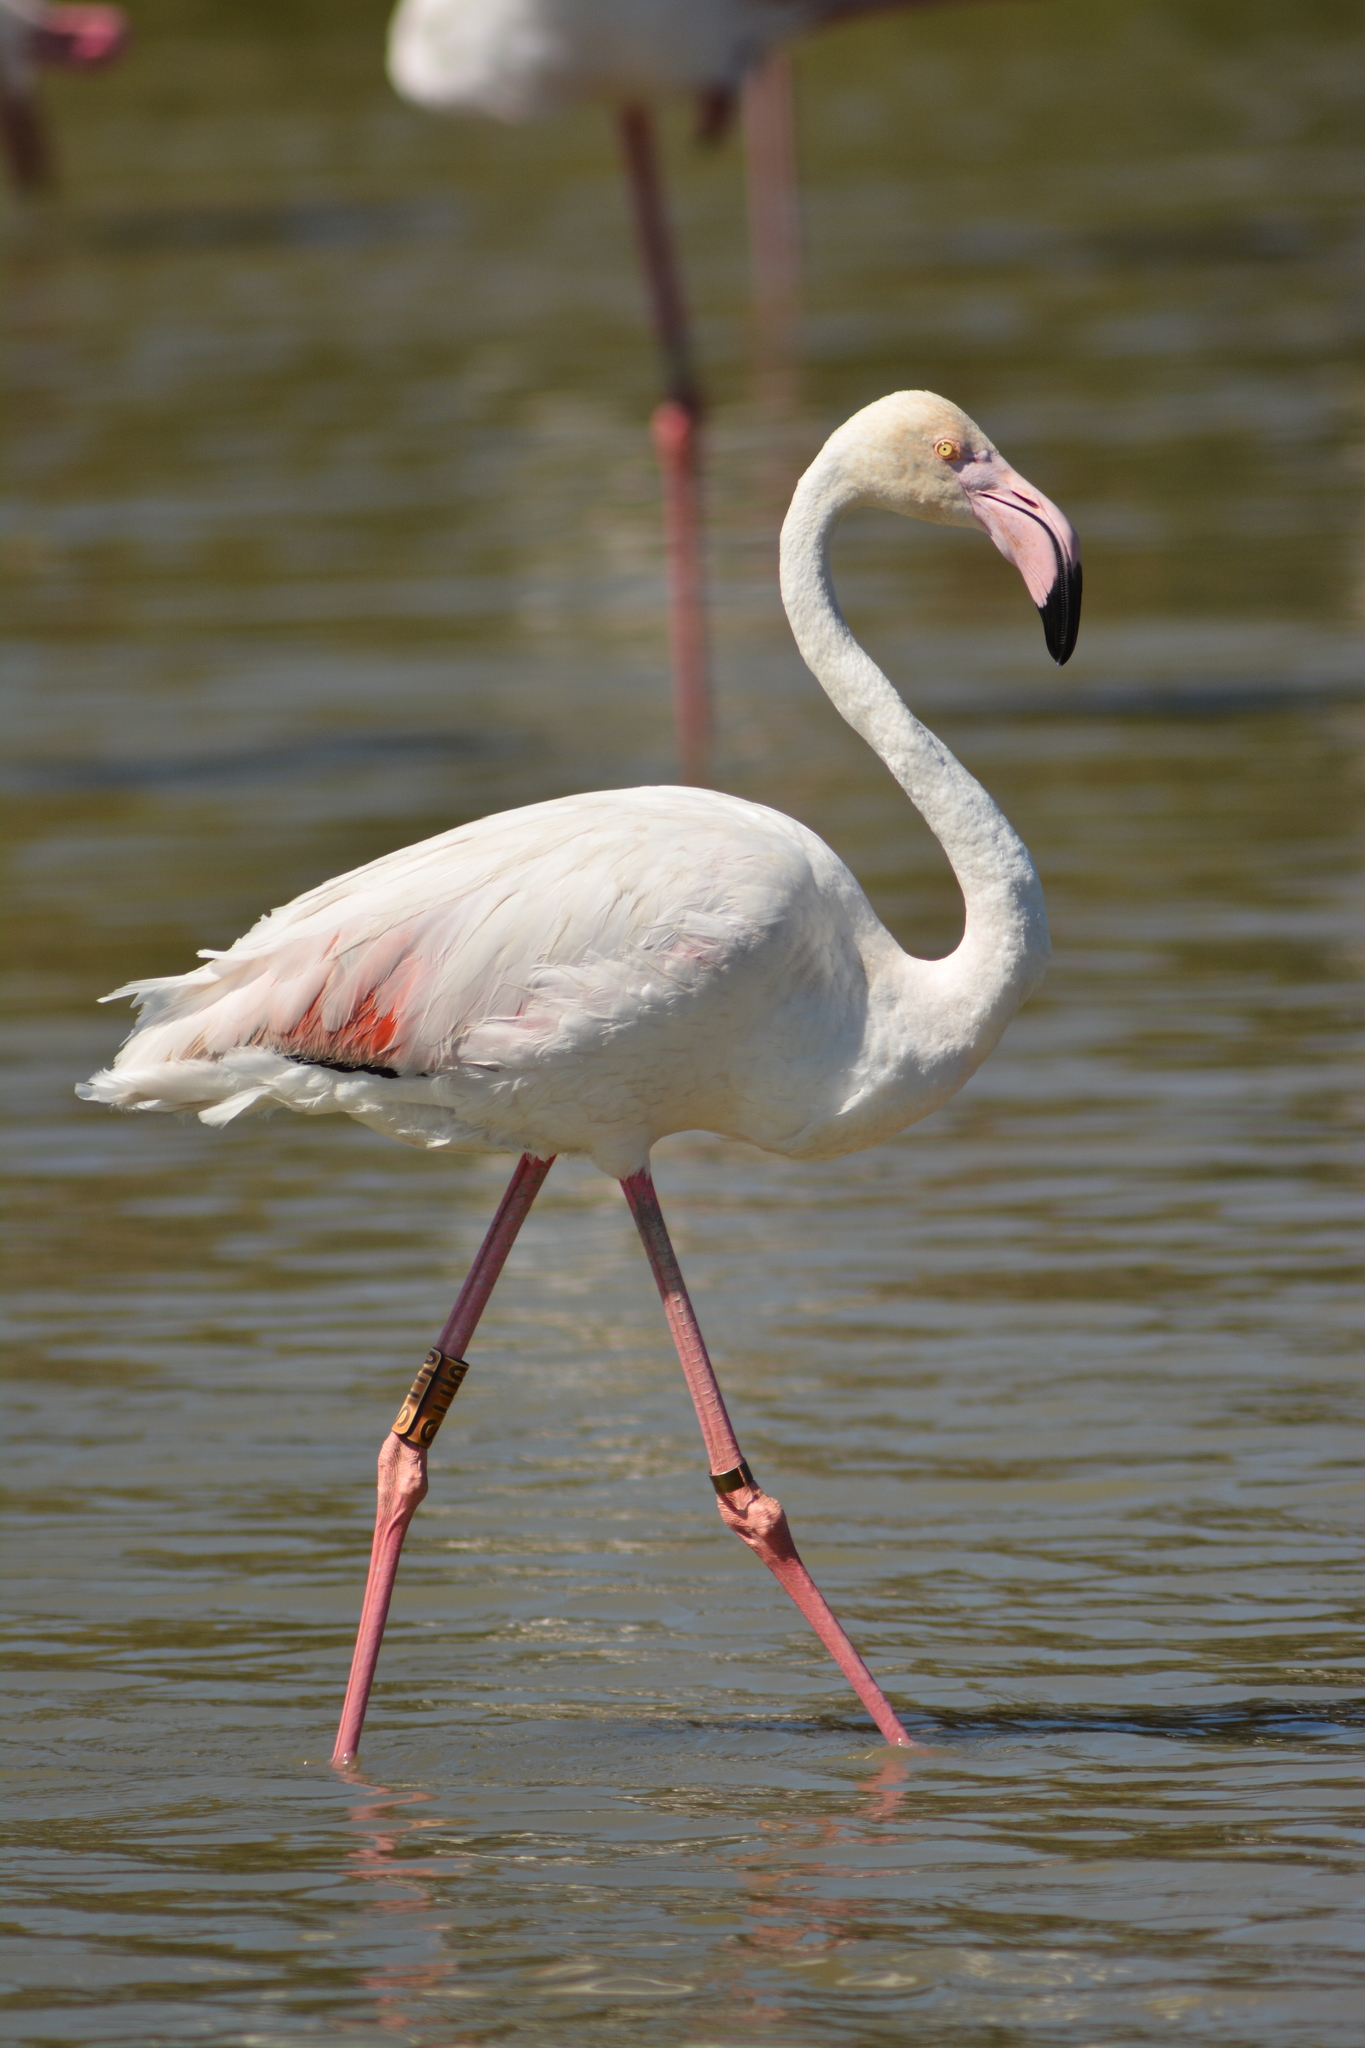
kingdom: Animalia
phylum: Chordata
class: Aves
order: Phoenicopteriformes
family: Phoenicopteridae
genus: Phoenicopterus
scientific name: Phoenicopterus roseus
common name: Greater flamingo
